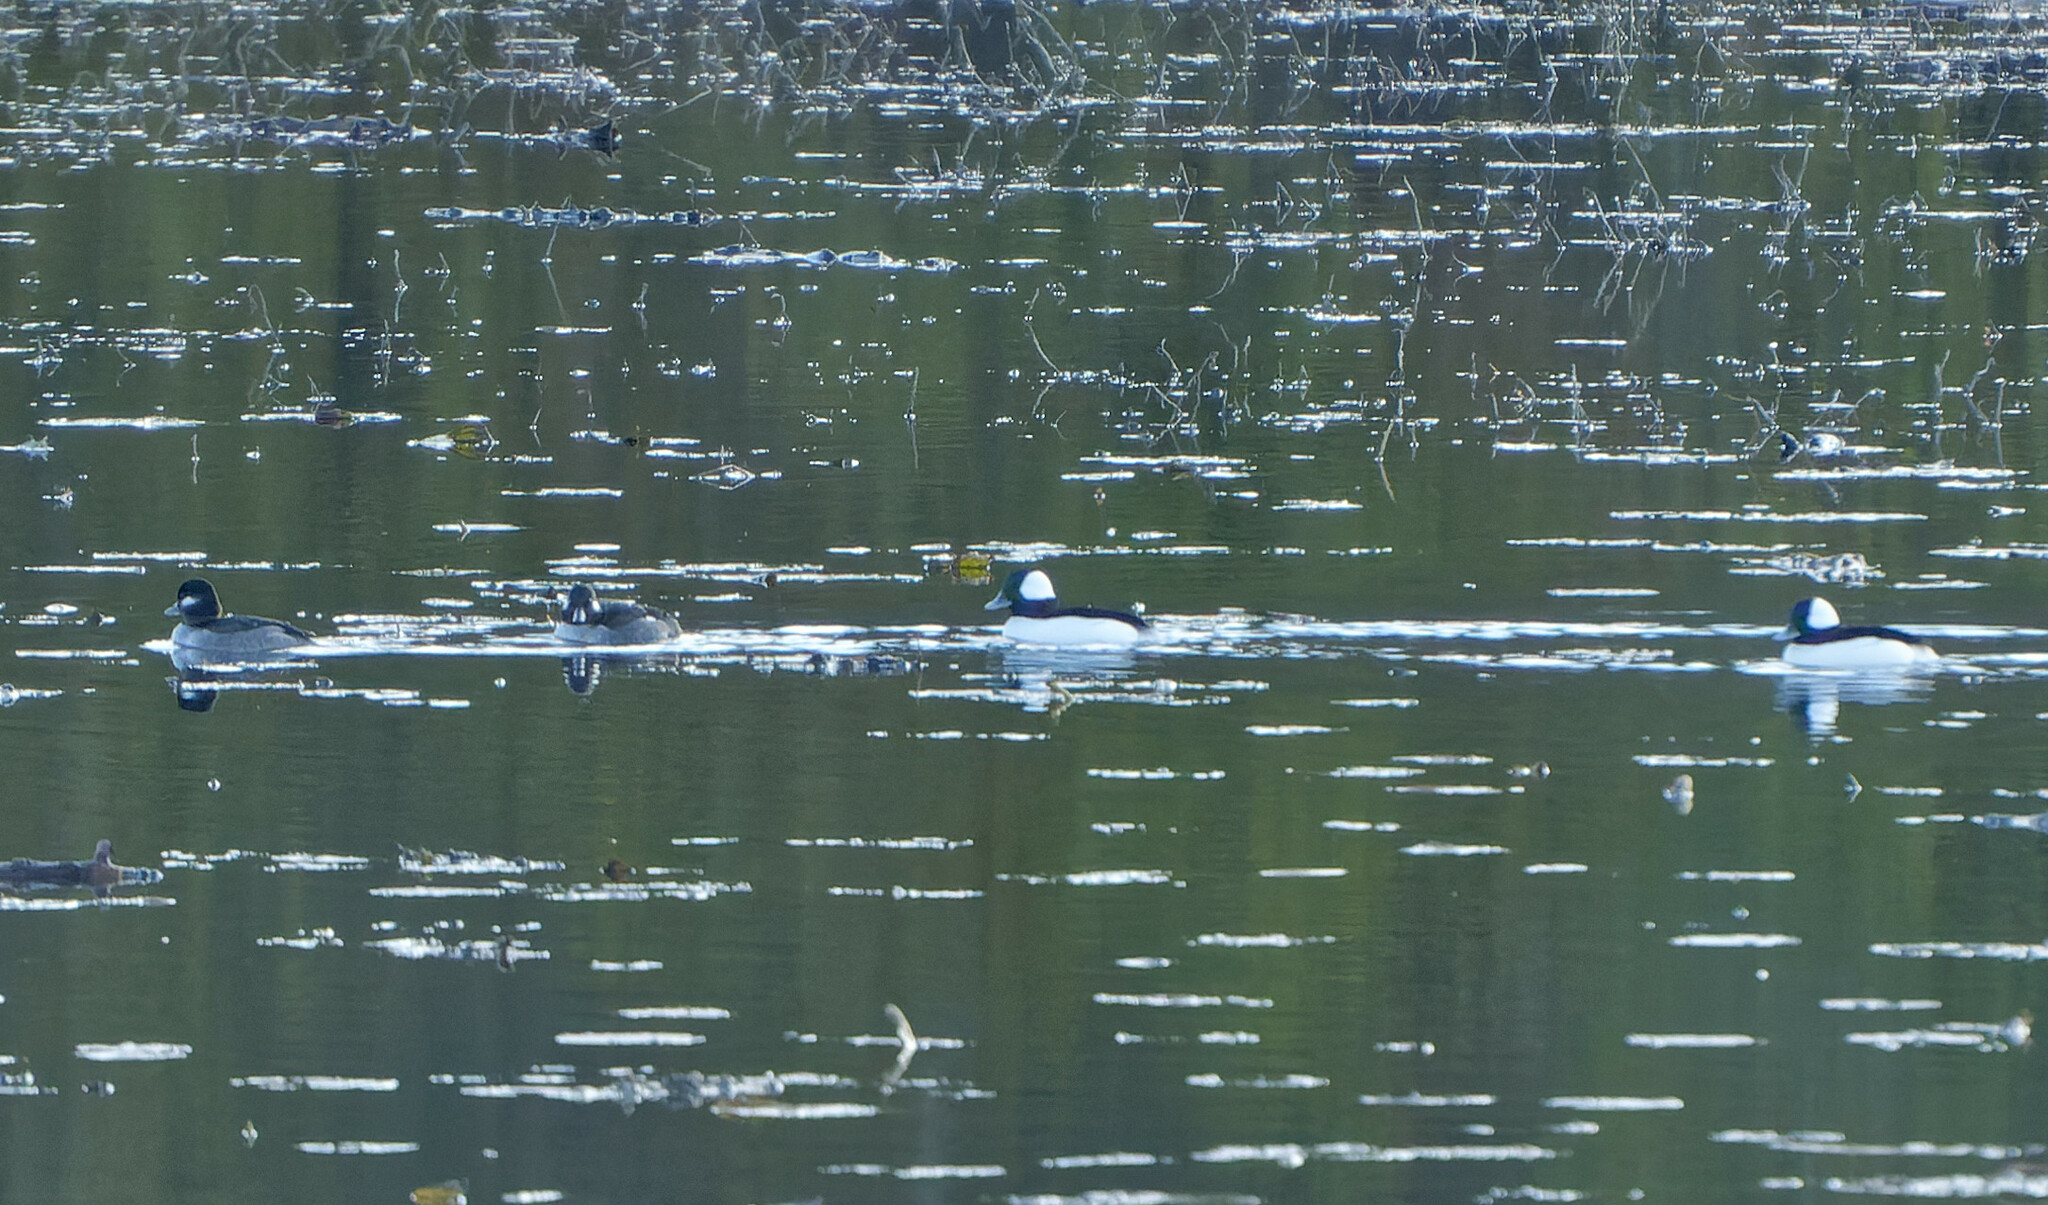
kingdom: Animalia
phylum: Chordata
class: Aves
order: Anseriformes
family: Anatidae
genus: Bucephala
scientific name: Bucephala albeola
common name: Bufflehead
